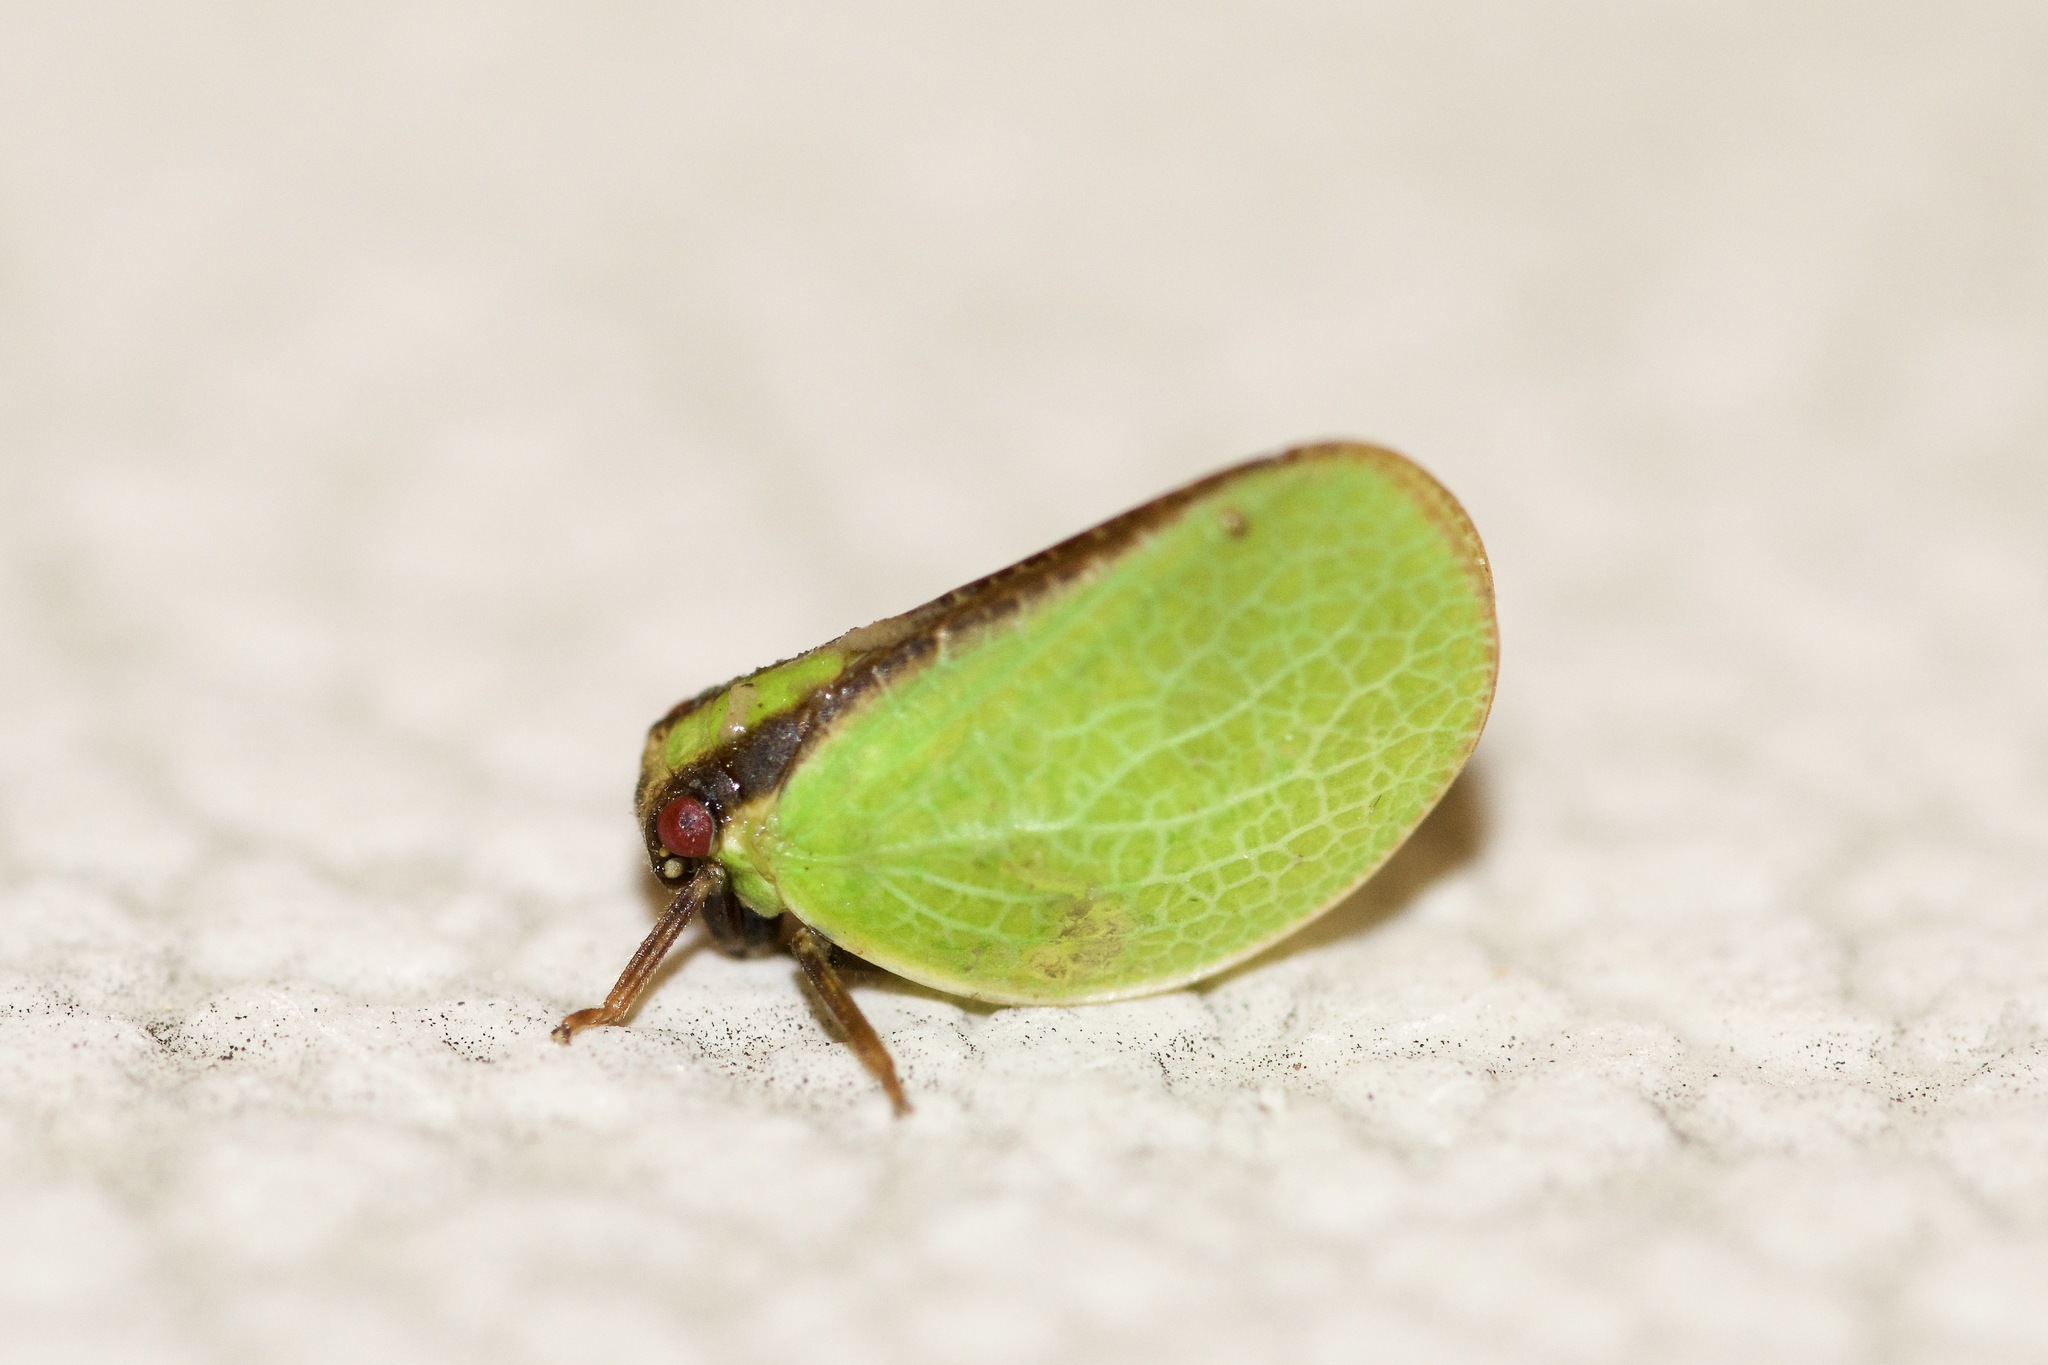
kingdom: Animalia
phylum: Arthropoda
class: Insecta
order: Hemiptera
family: Acanaloniidae
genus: Acanalonia
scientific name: Acanalonia bivittata
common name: Two-striped planthopper
